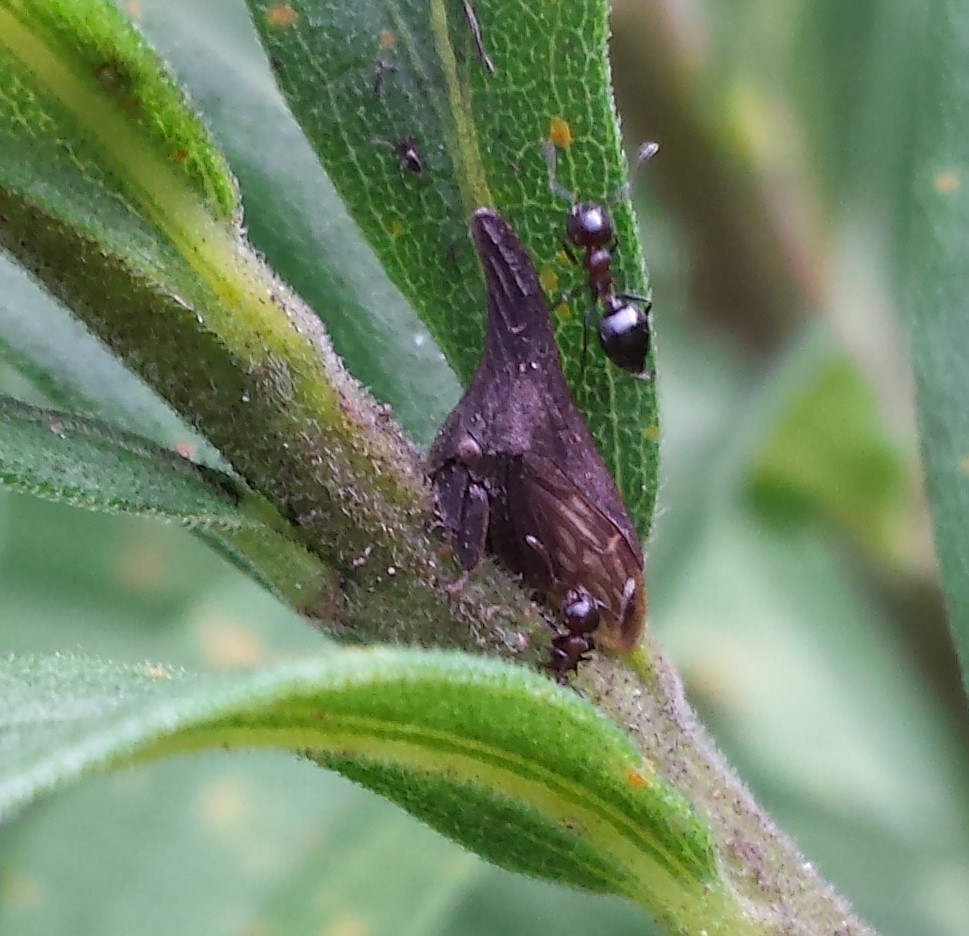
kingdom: Animalia
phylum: Arthropoda
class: Insecta
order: Hemiptera
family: Membracidae
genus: Enchenopa
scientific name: Enchenopa latipes
